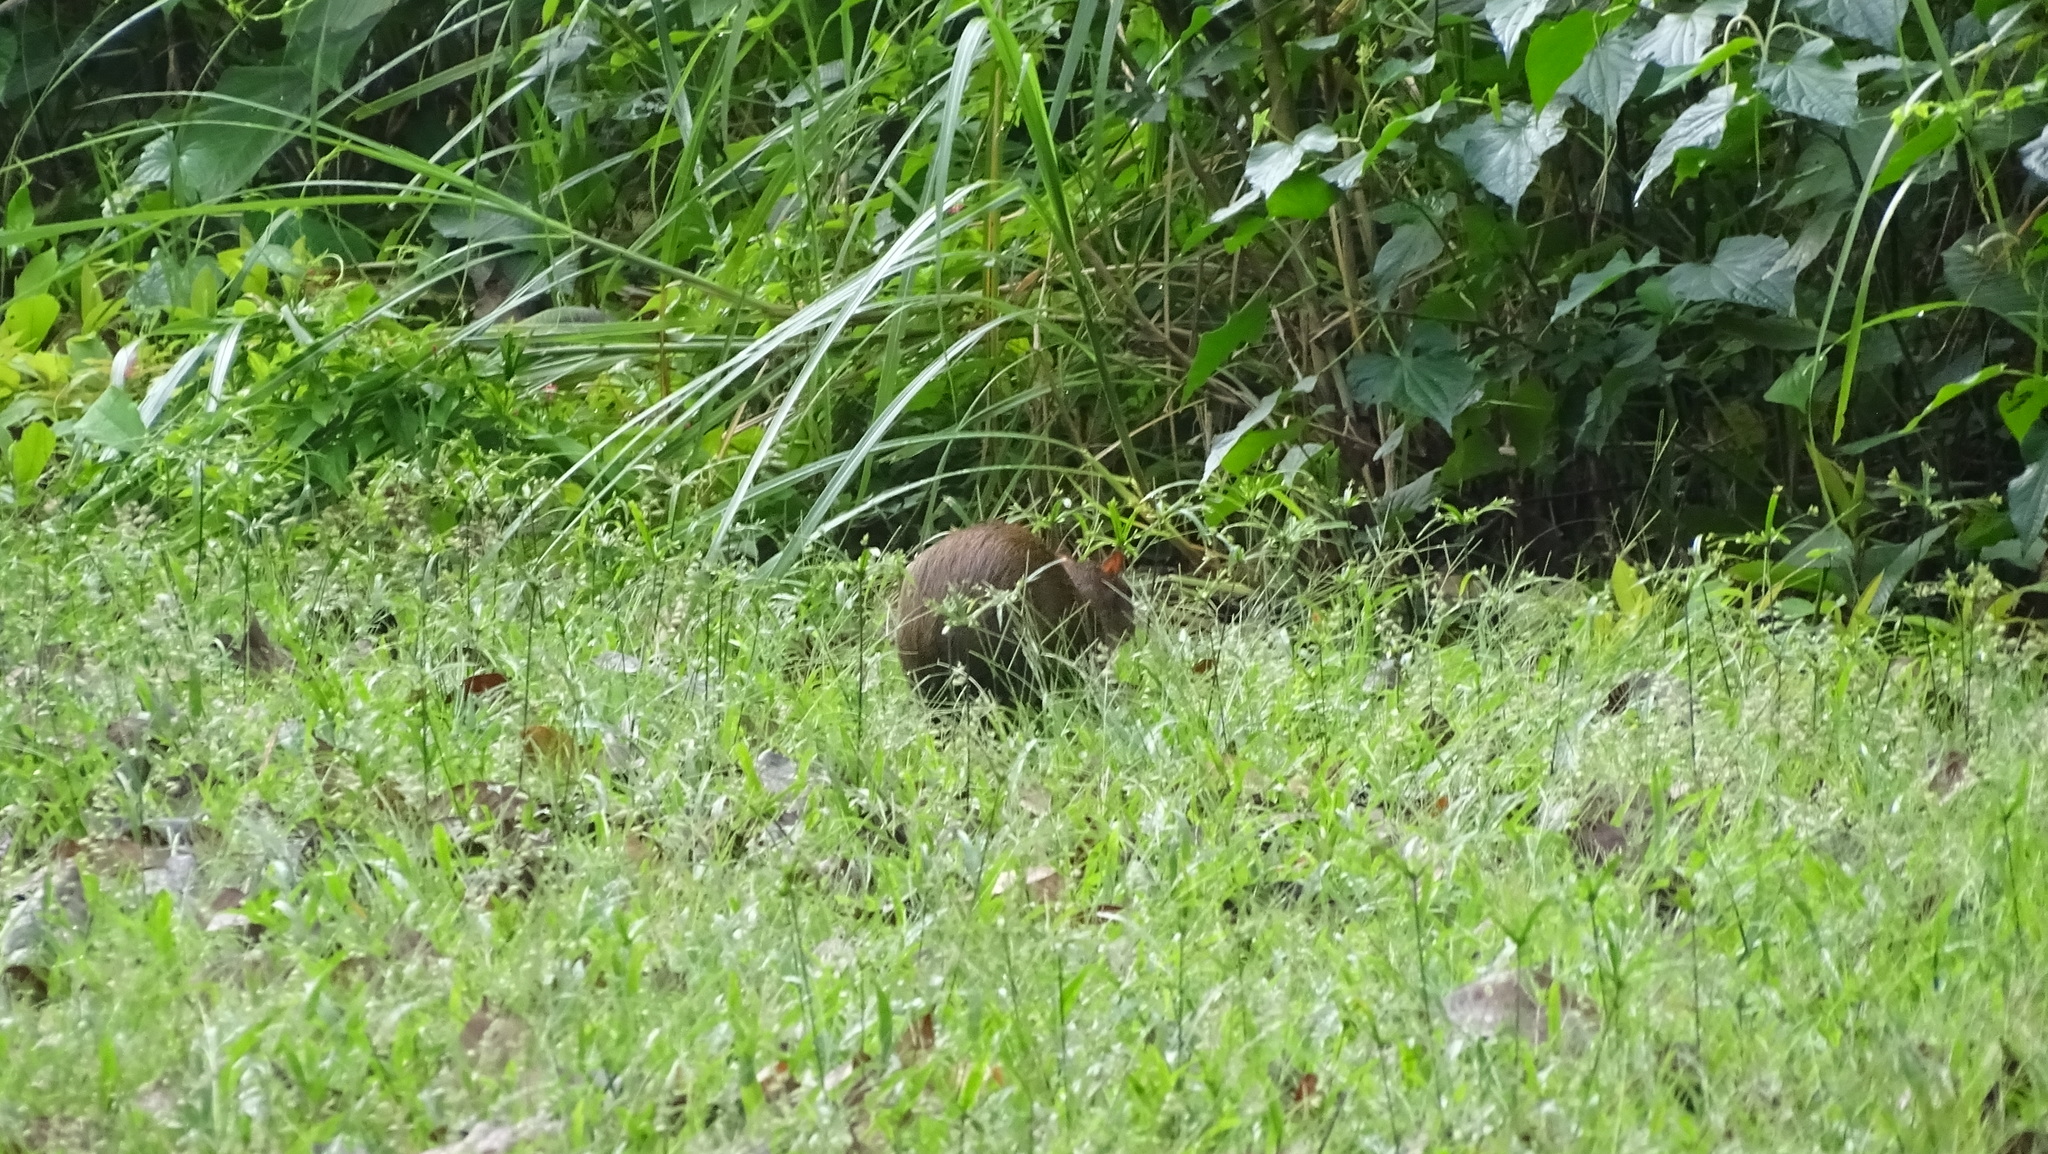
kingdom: Animalia
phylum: Chordata
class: Mammalia
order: Rodentia
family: Dasyproctidae
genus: Dasyprocta
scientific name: Dasyprocta punctata
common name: Central american agouti
